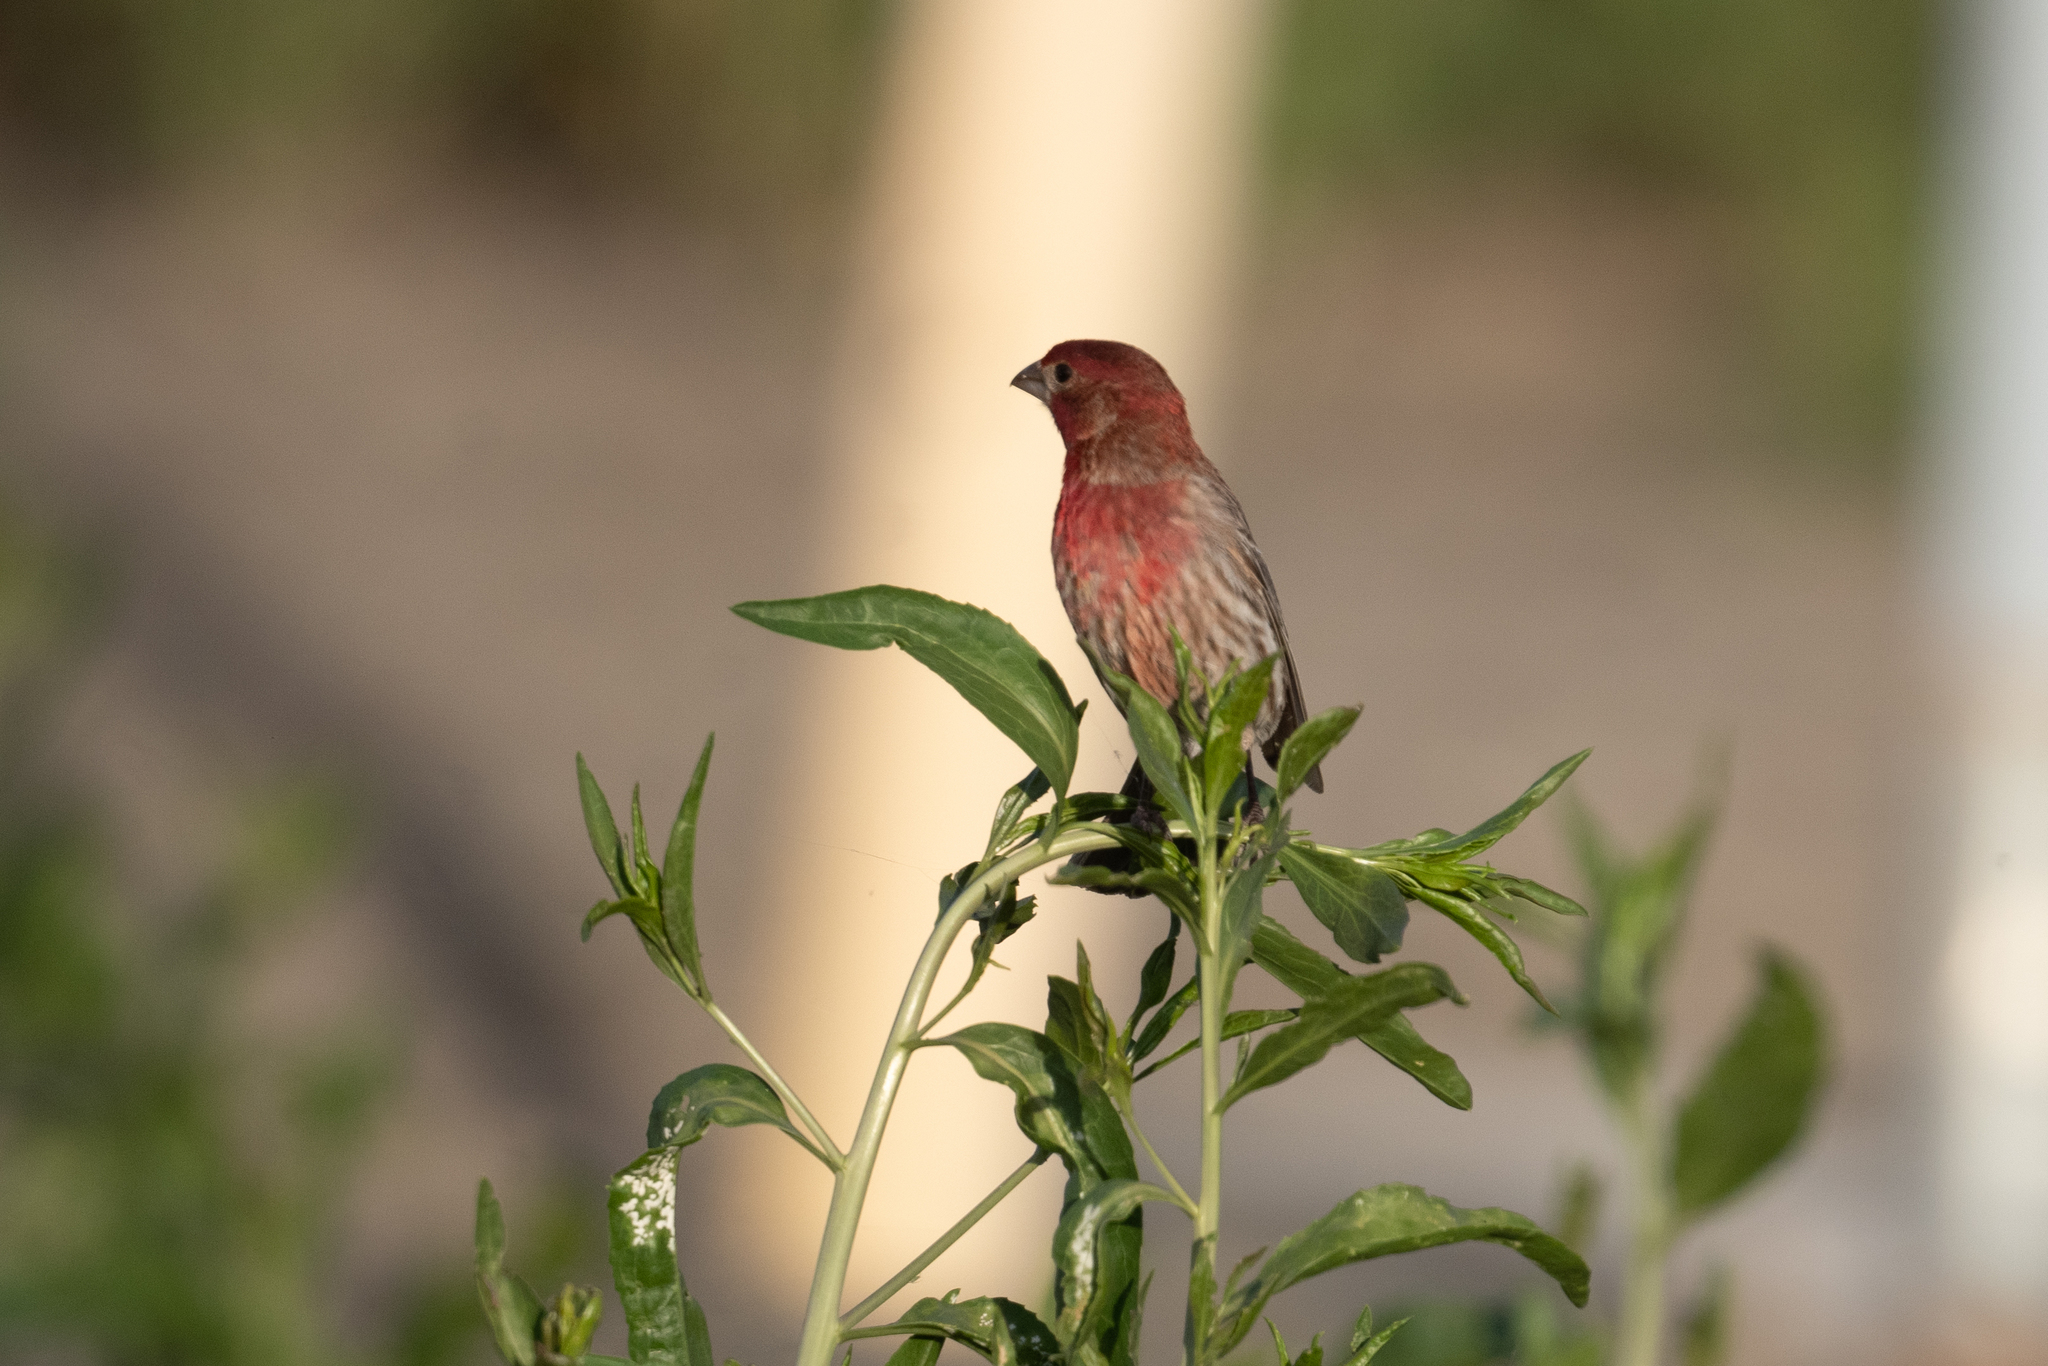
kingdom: Animalia
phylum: Chordata
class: Aves
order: Passeriformes
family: Fringillidae
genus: Haemorhous
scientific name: Haemorhous mexicanus
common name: House finch
